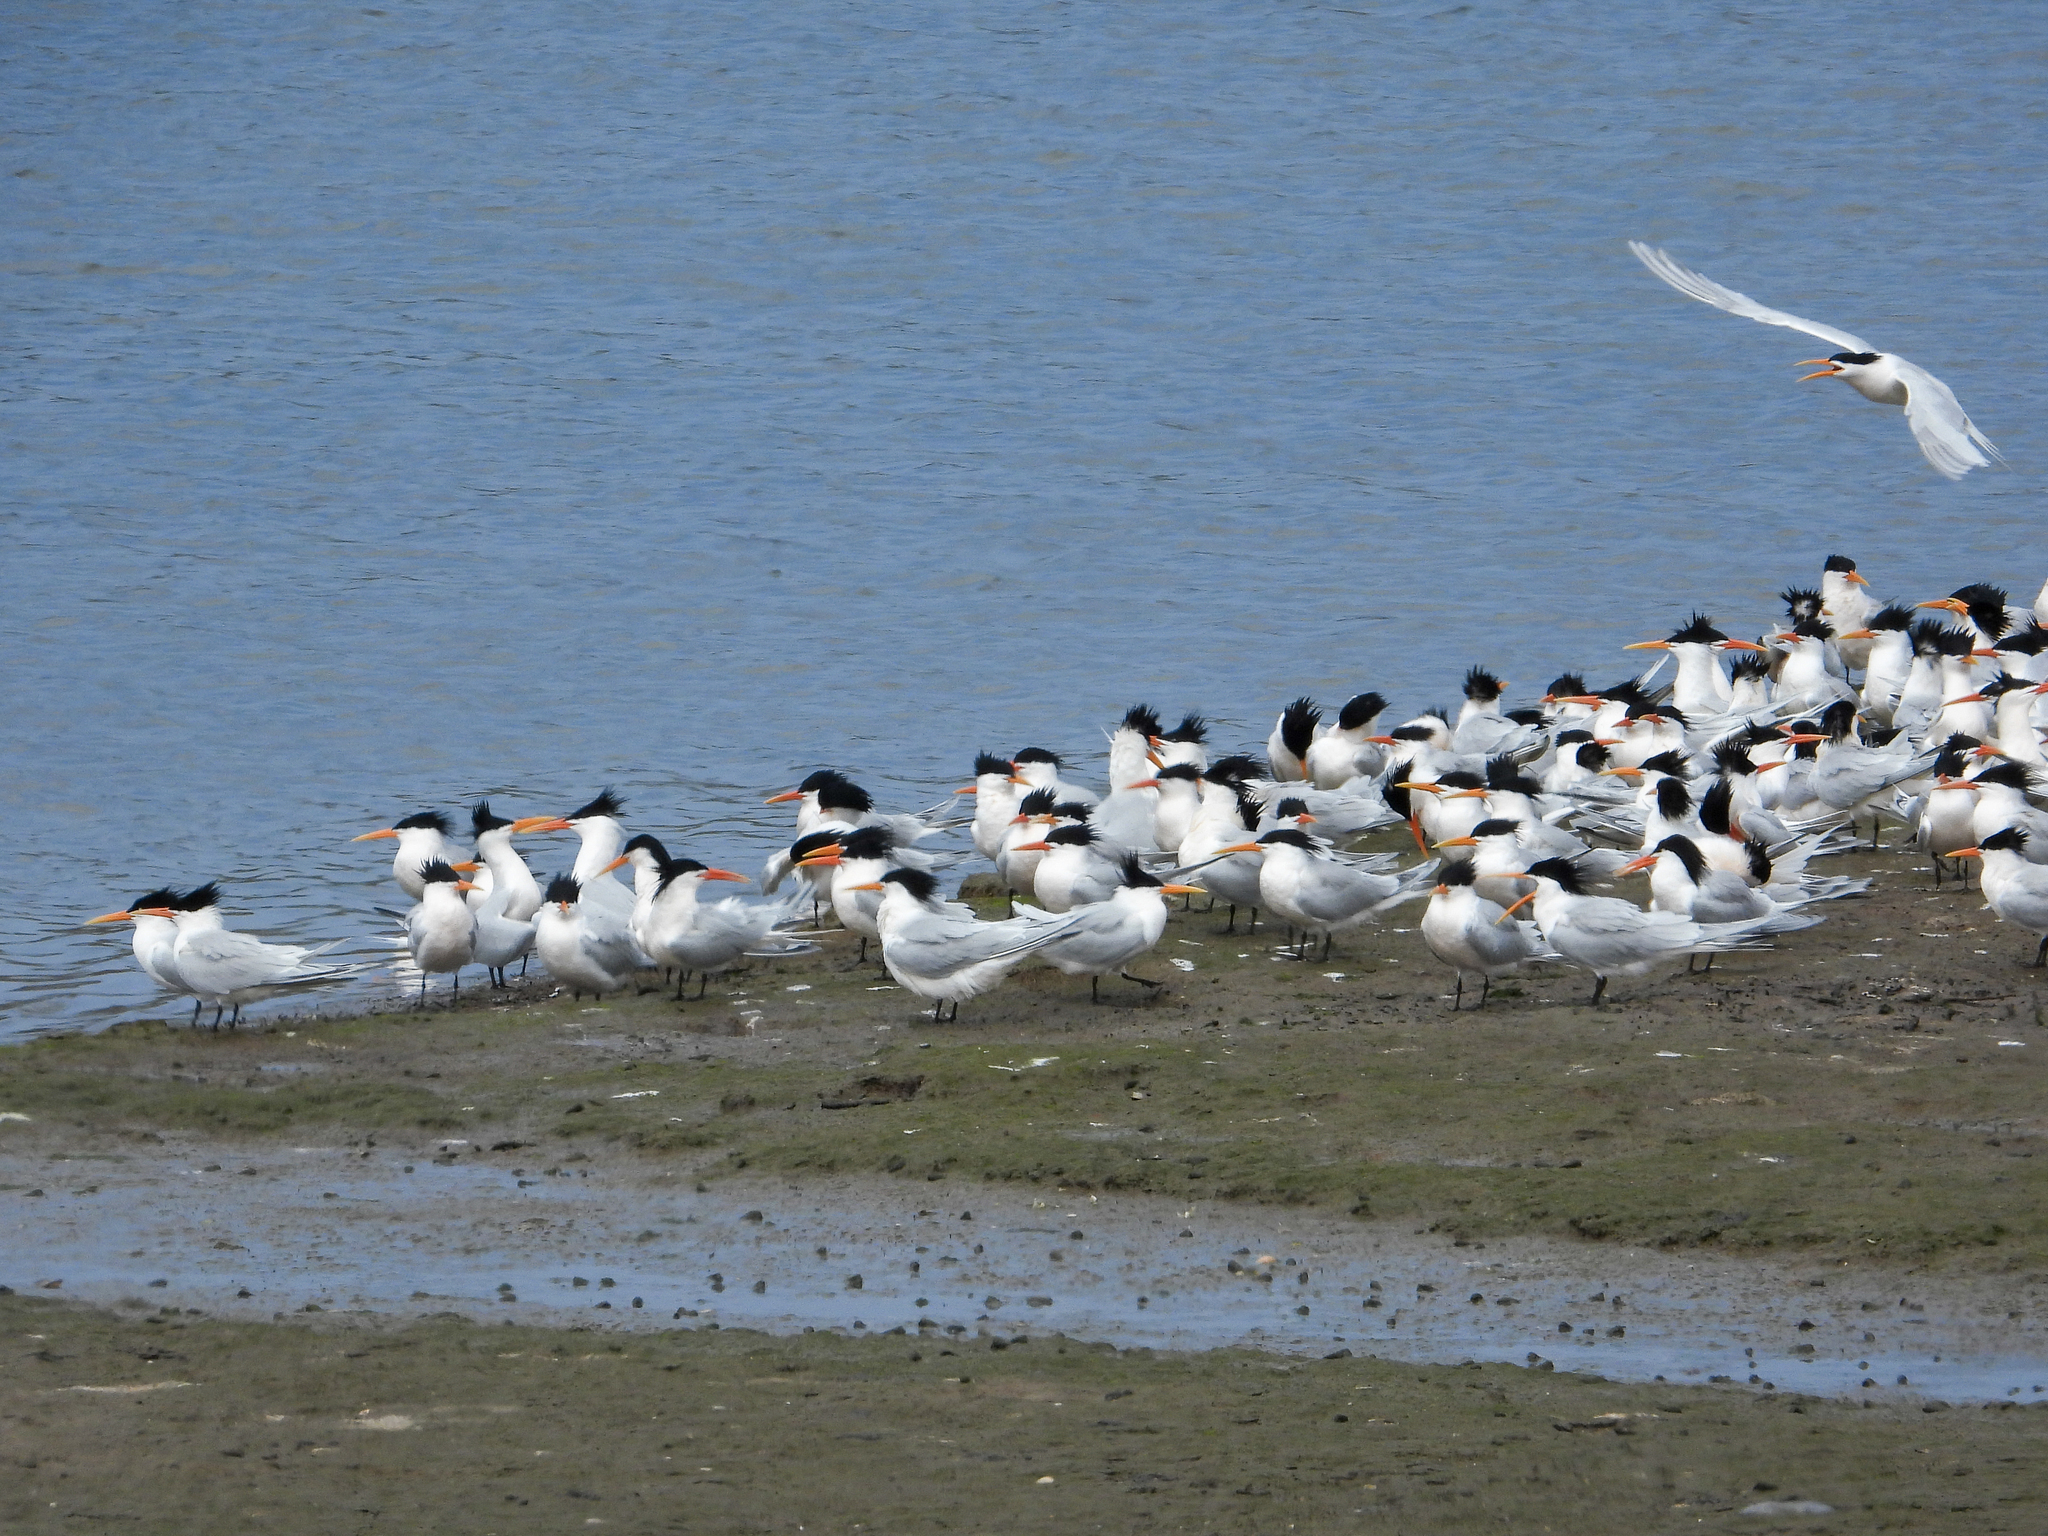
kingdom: Animalia
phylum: Chordata
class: Aves
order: Charadriiformes
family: Laridae
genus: Thalasseus
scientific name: Thalasseus elegans
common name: Elegant tern
